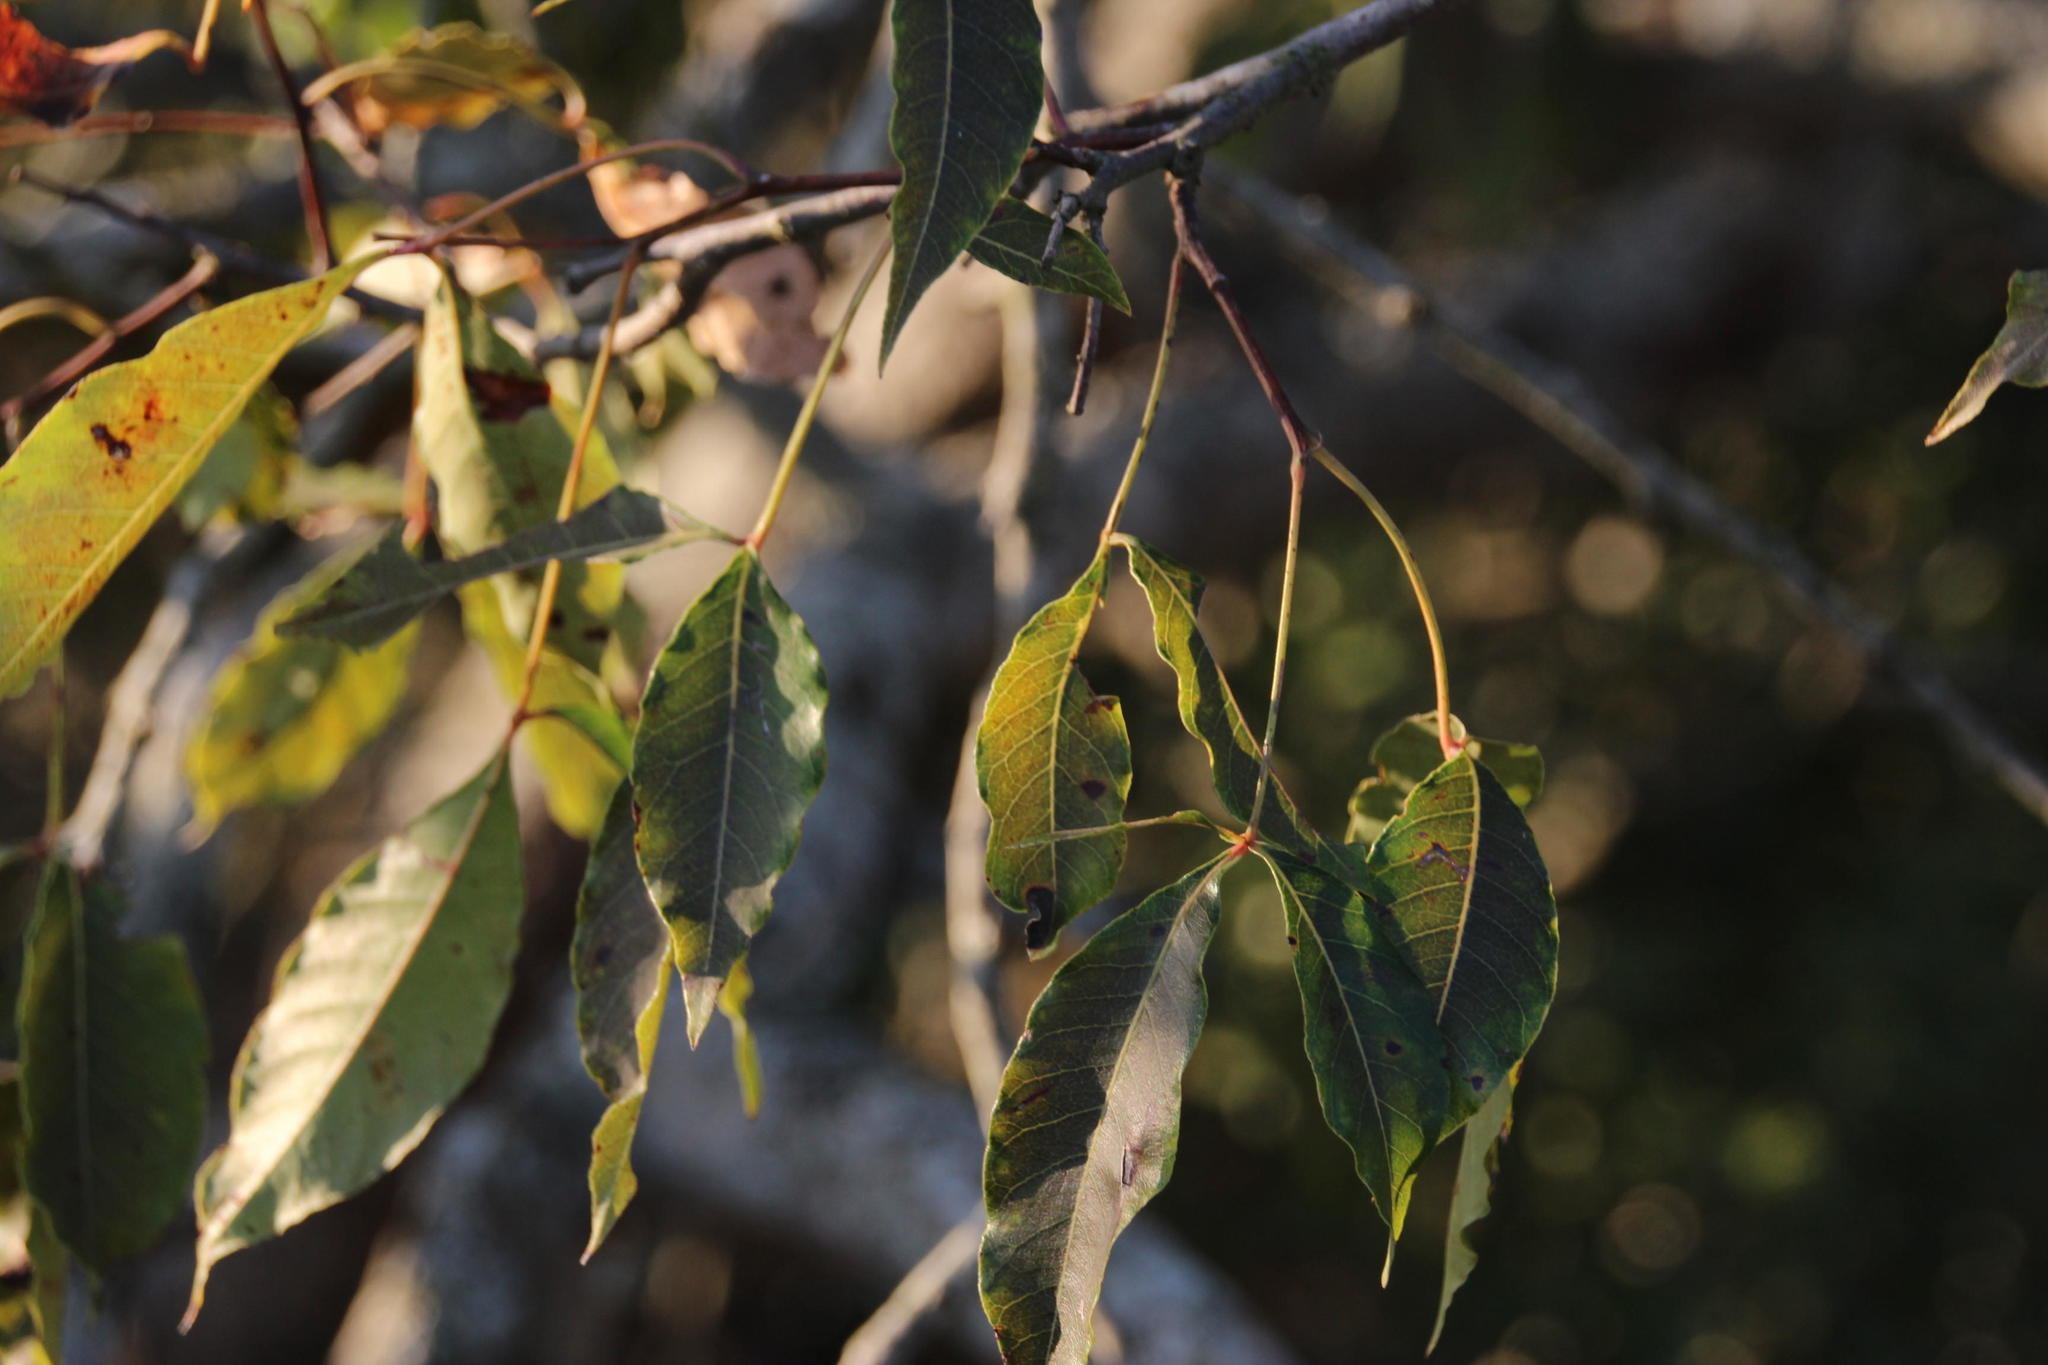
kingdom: Plantae
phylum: Tracheophyta
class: Magnoliopsida
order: Sapindales
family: Anacardiaceae
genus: Searsia
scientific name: Searsia chirindensis
